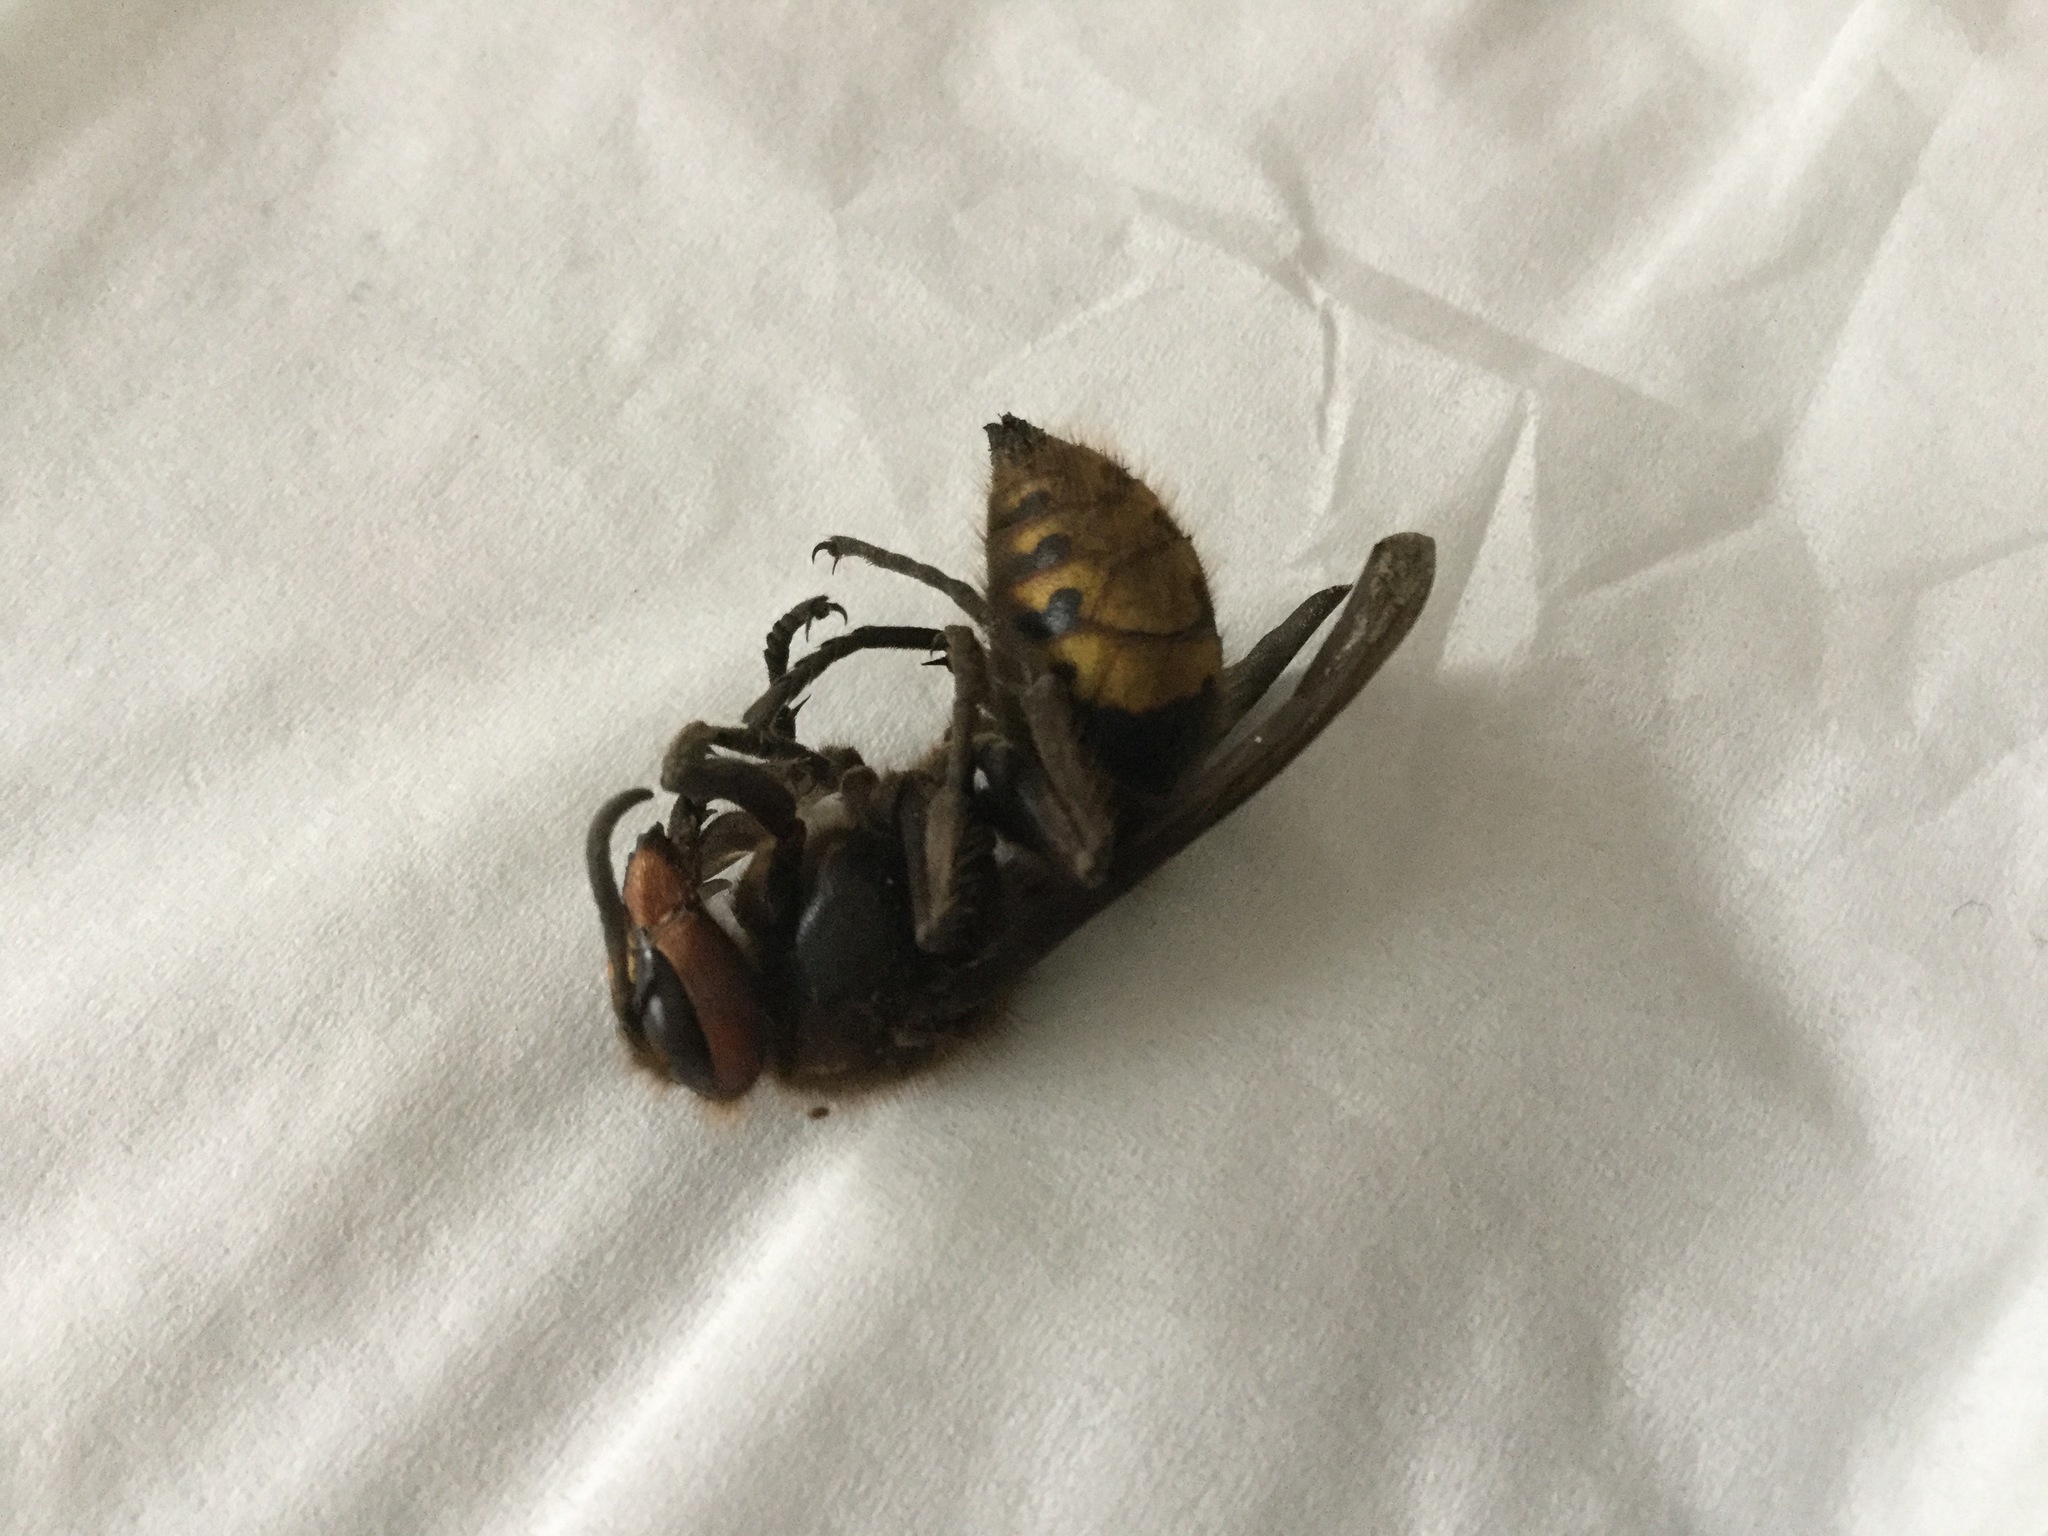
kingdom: Animalia
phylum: Arthropoda
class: Insecta
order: Hymenoptera
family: Vespidae
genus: Vespa
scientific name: Vespa crabro
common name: Hornet
